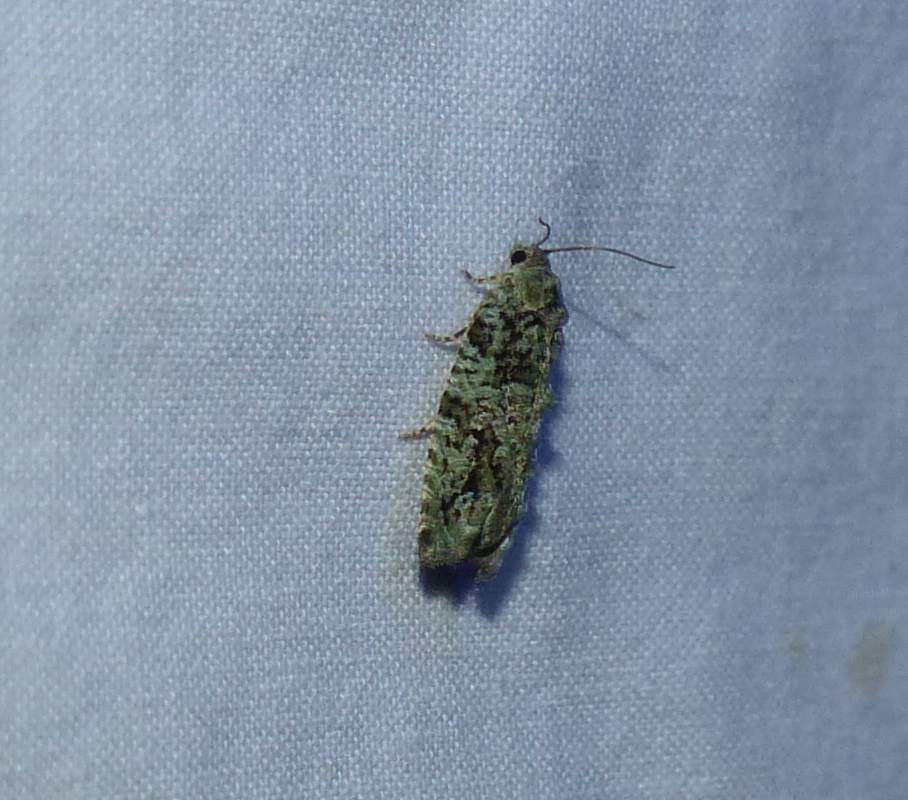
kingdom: Animalia
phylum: Arthropoda
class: Insecta
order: Lepidoptera
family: Tortricidae
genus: Proteoteras
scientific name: Proteoteras aesculana
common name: Maple twig borer moth
